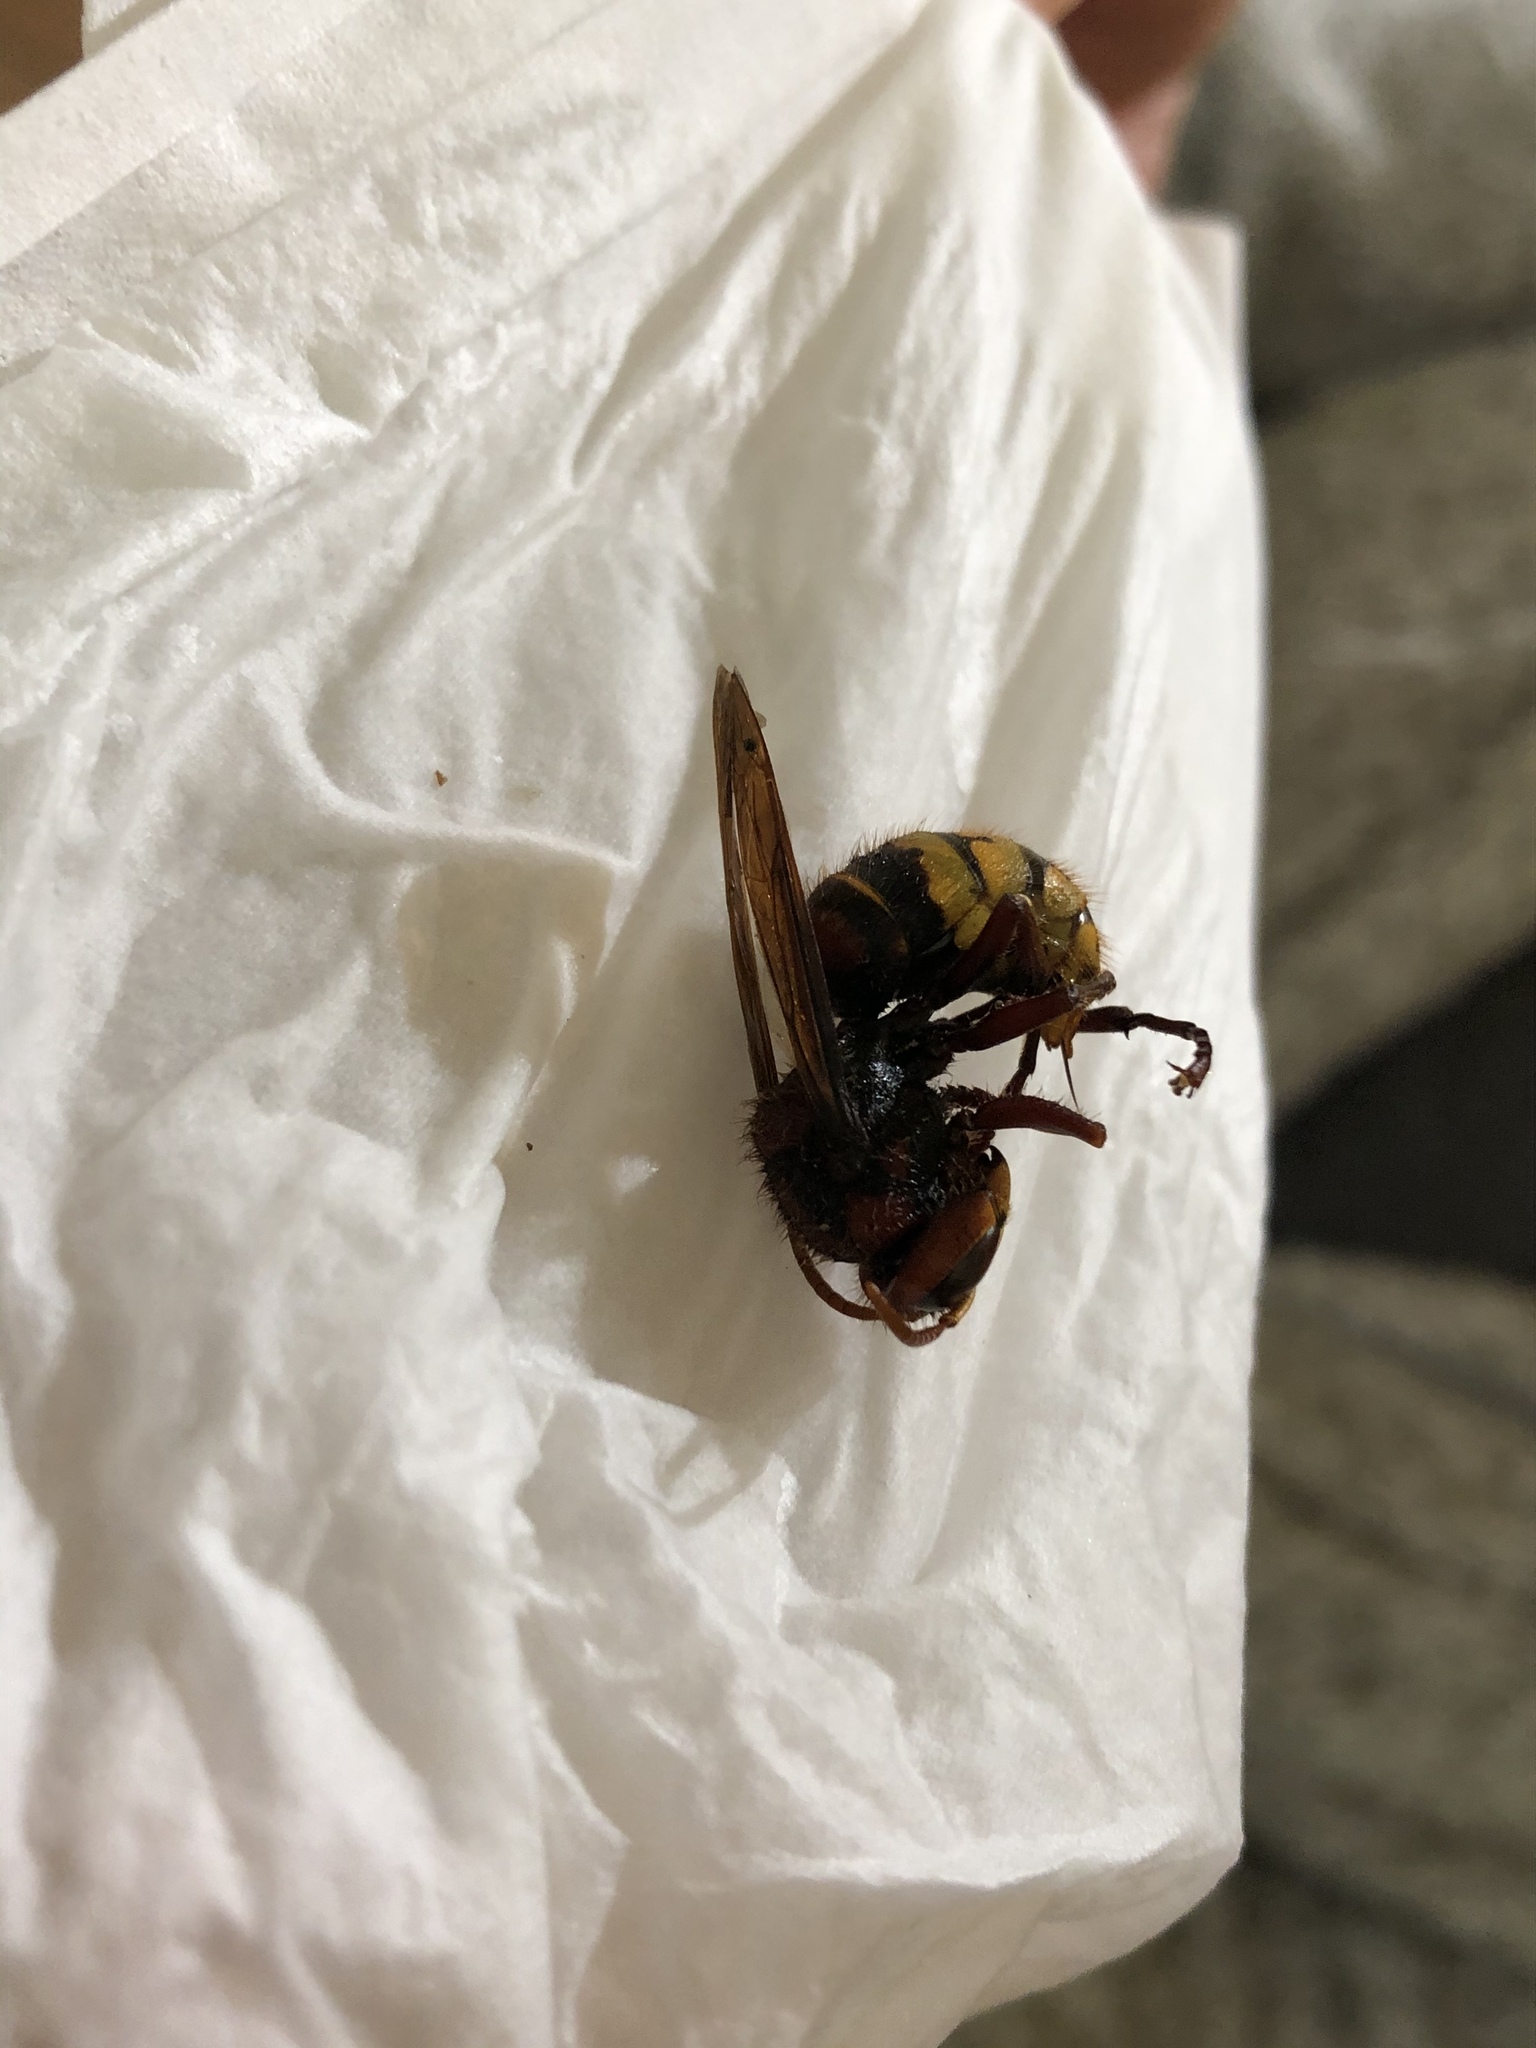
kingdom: Animalia
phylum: Arthropoda
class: Insecta
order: Hymenoptera
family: Vespidae
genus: Vespa
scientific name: Vespa crabro
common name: Hornet
